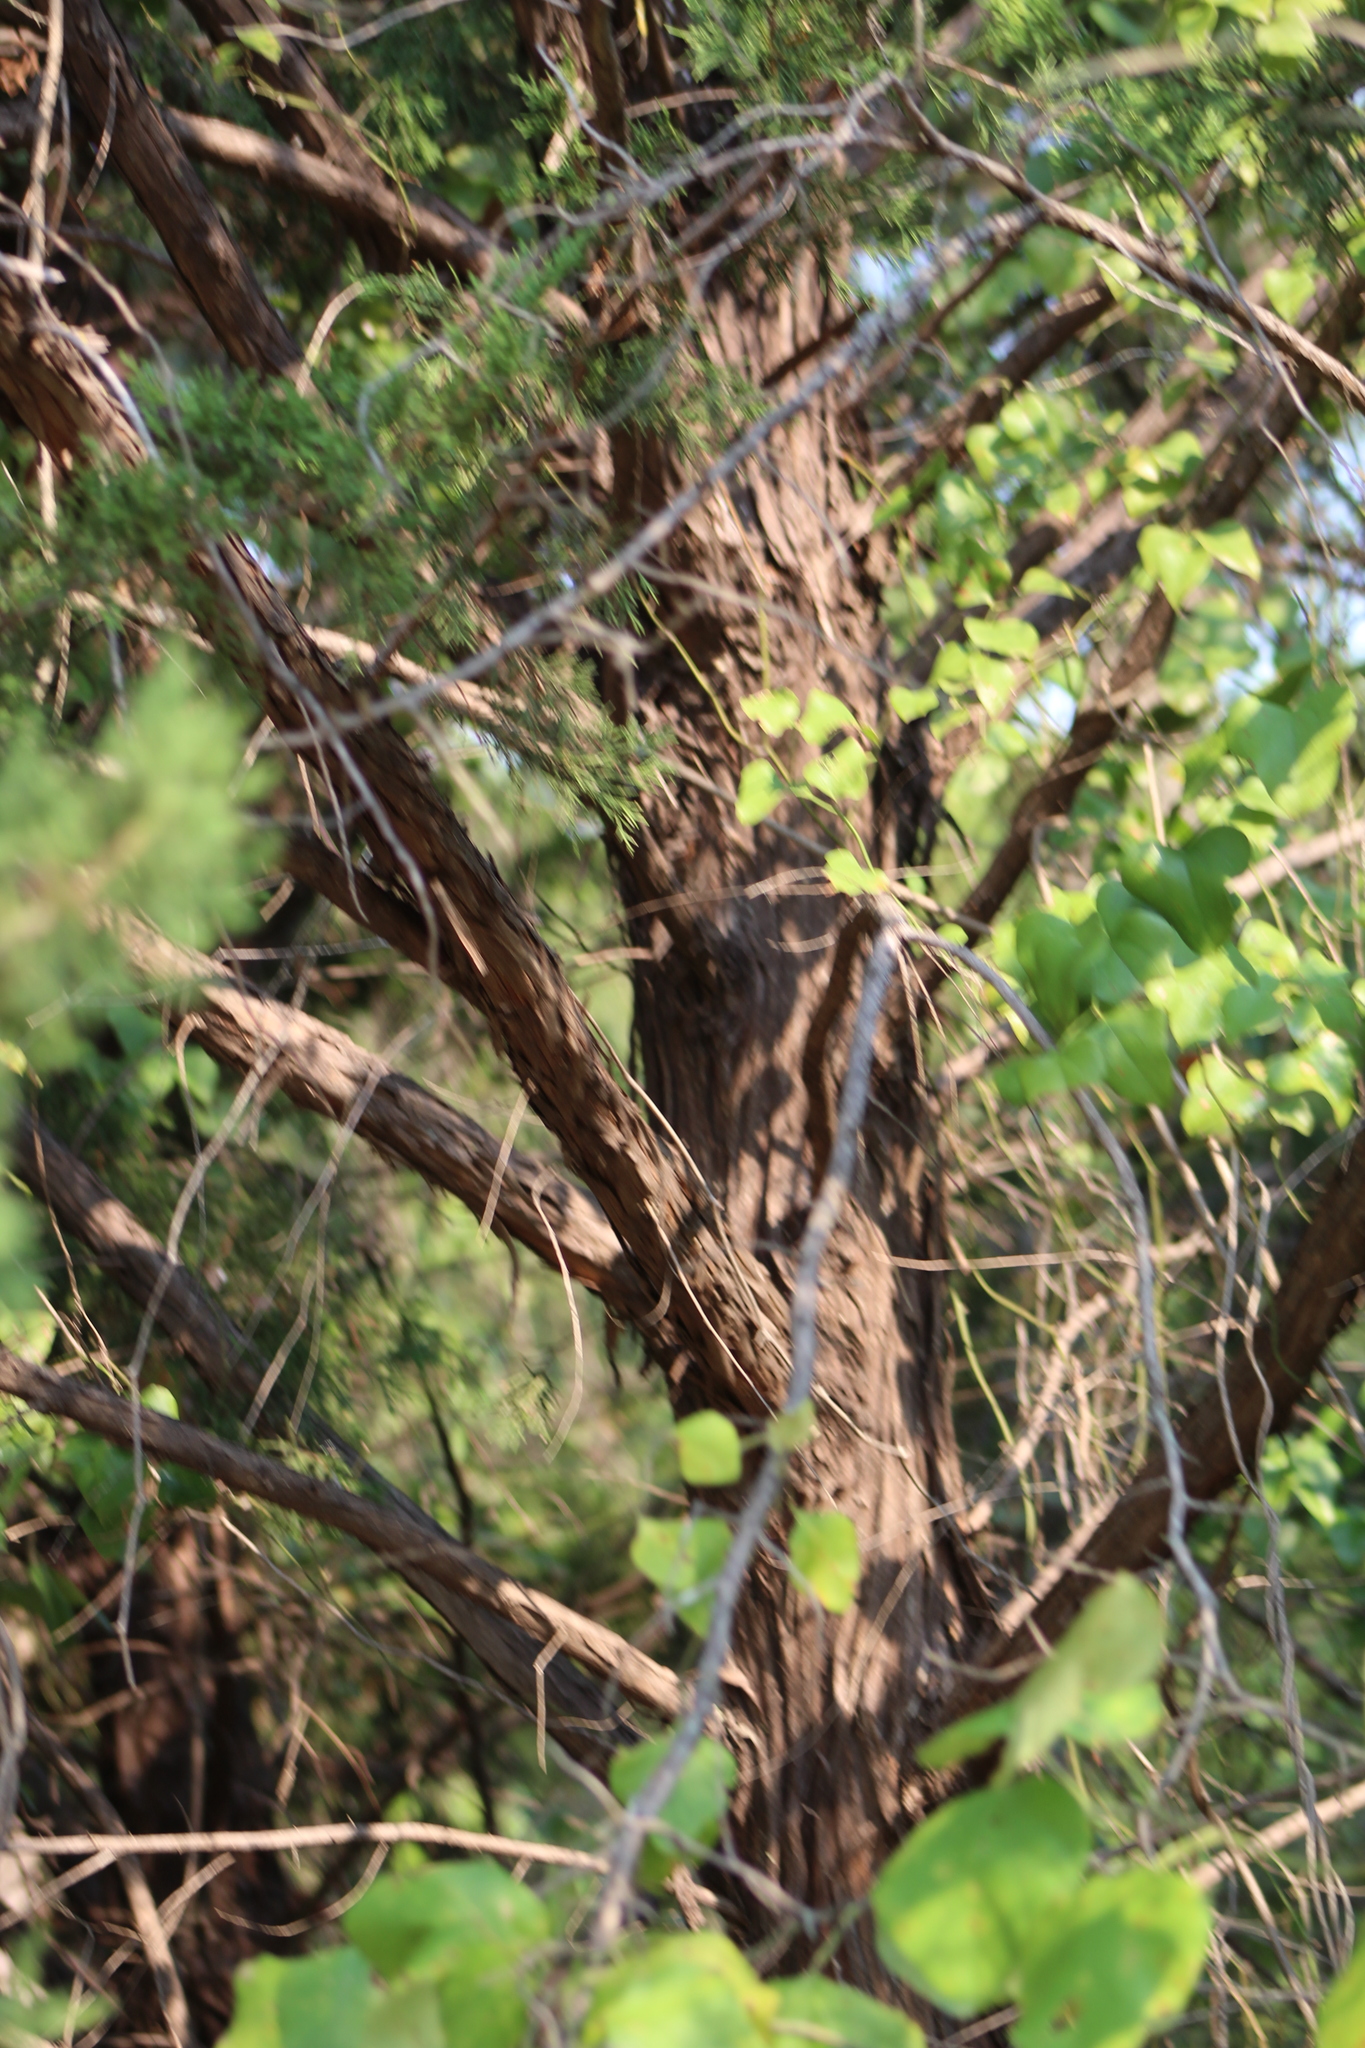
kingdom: Plantae
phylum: Tracheophyta
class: Pinopsida
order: Pinales
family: Cupressaceae
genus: Juniperus
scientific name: Juniperus virginiana
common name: Red juniper
